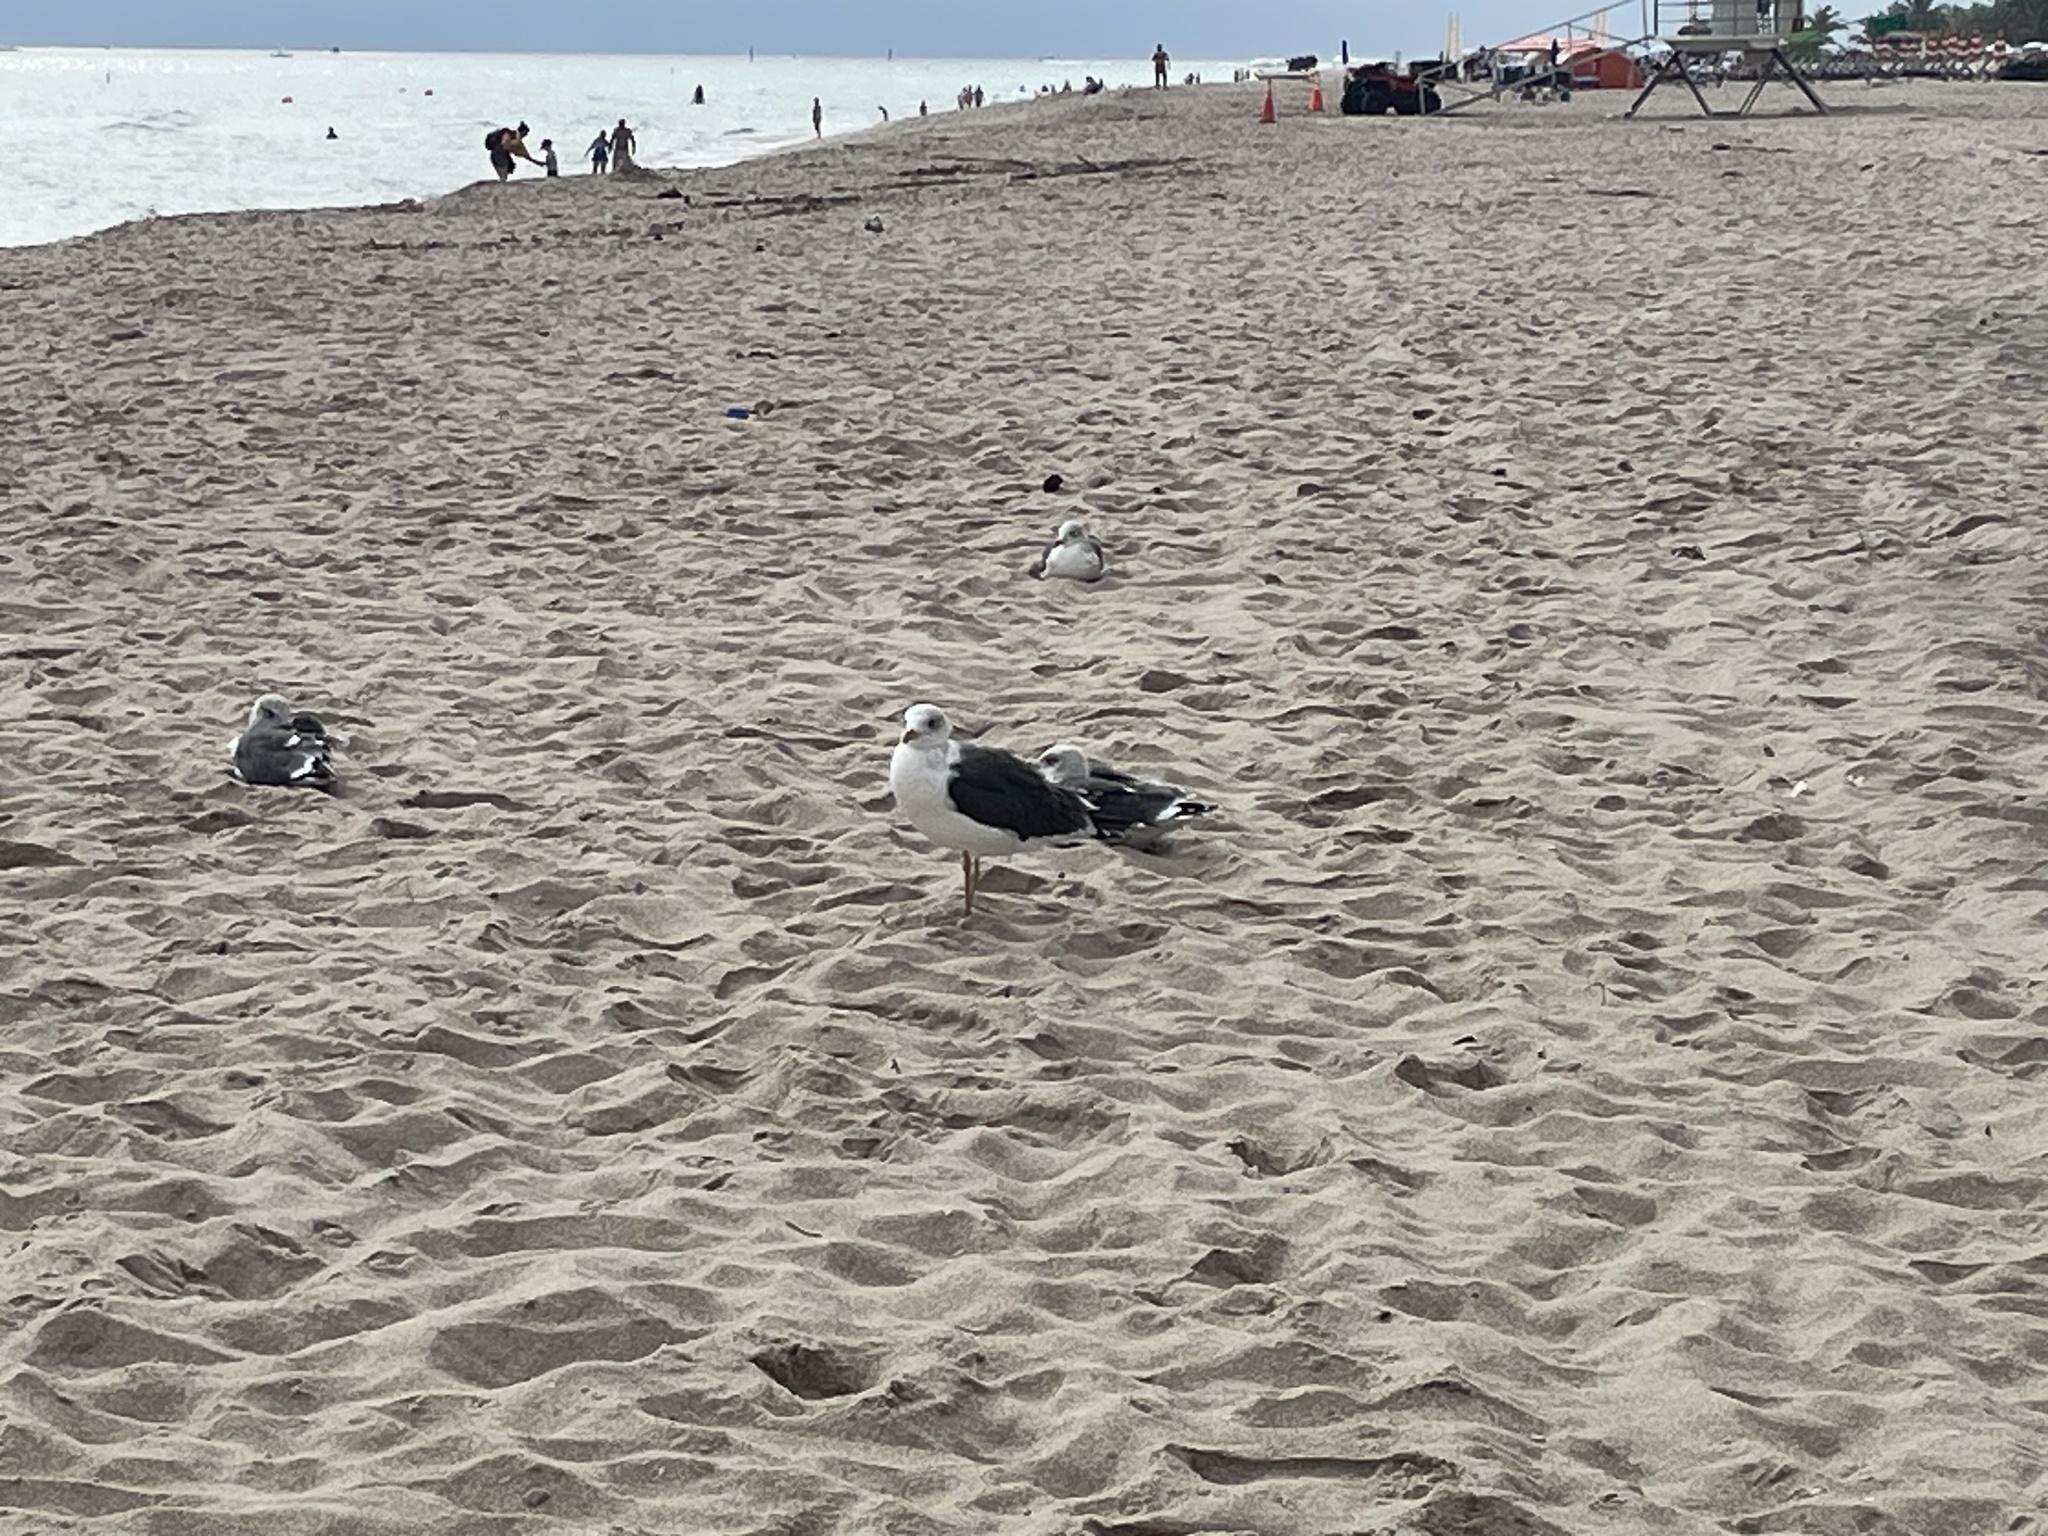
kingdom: Animalia
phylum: Chordata
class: Aves
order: Charadriiformes
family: Laridae
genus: Larus
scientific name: Larus fuscus
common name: Lesser black-backed gull
